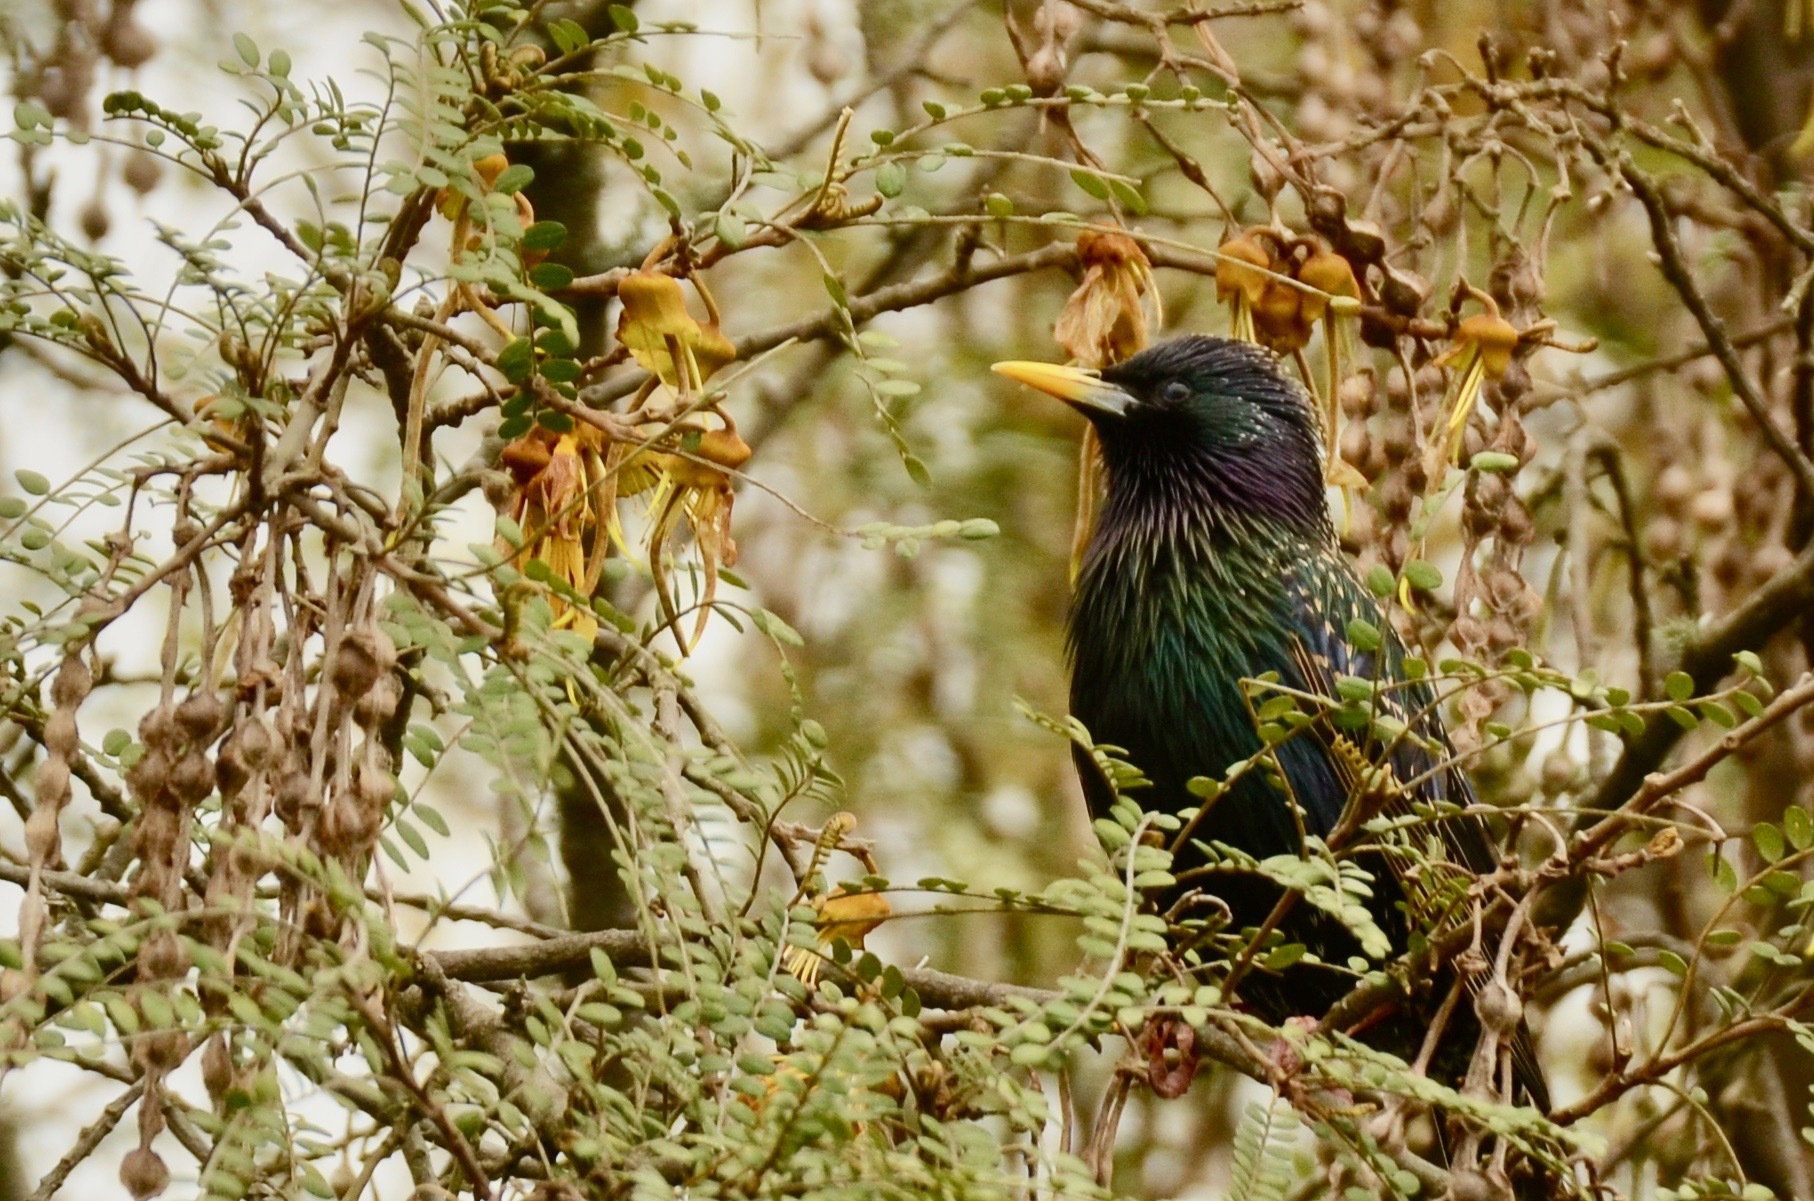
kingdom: Animalia
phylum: Chordata
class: Aves
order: Passeriformes
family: Sturnidae
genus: Sturnus
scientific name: Sturnus vulgaris
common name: Common starling
